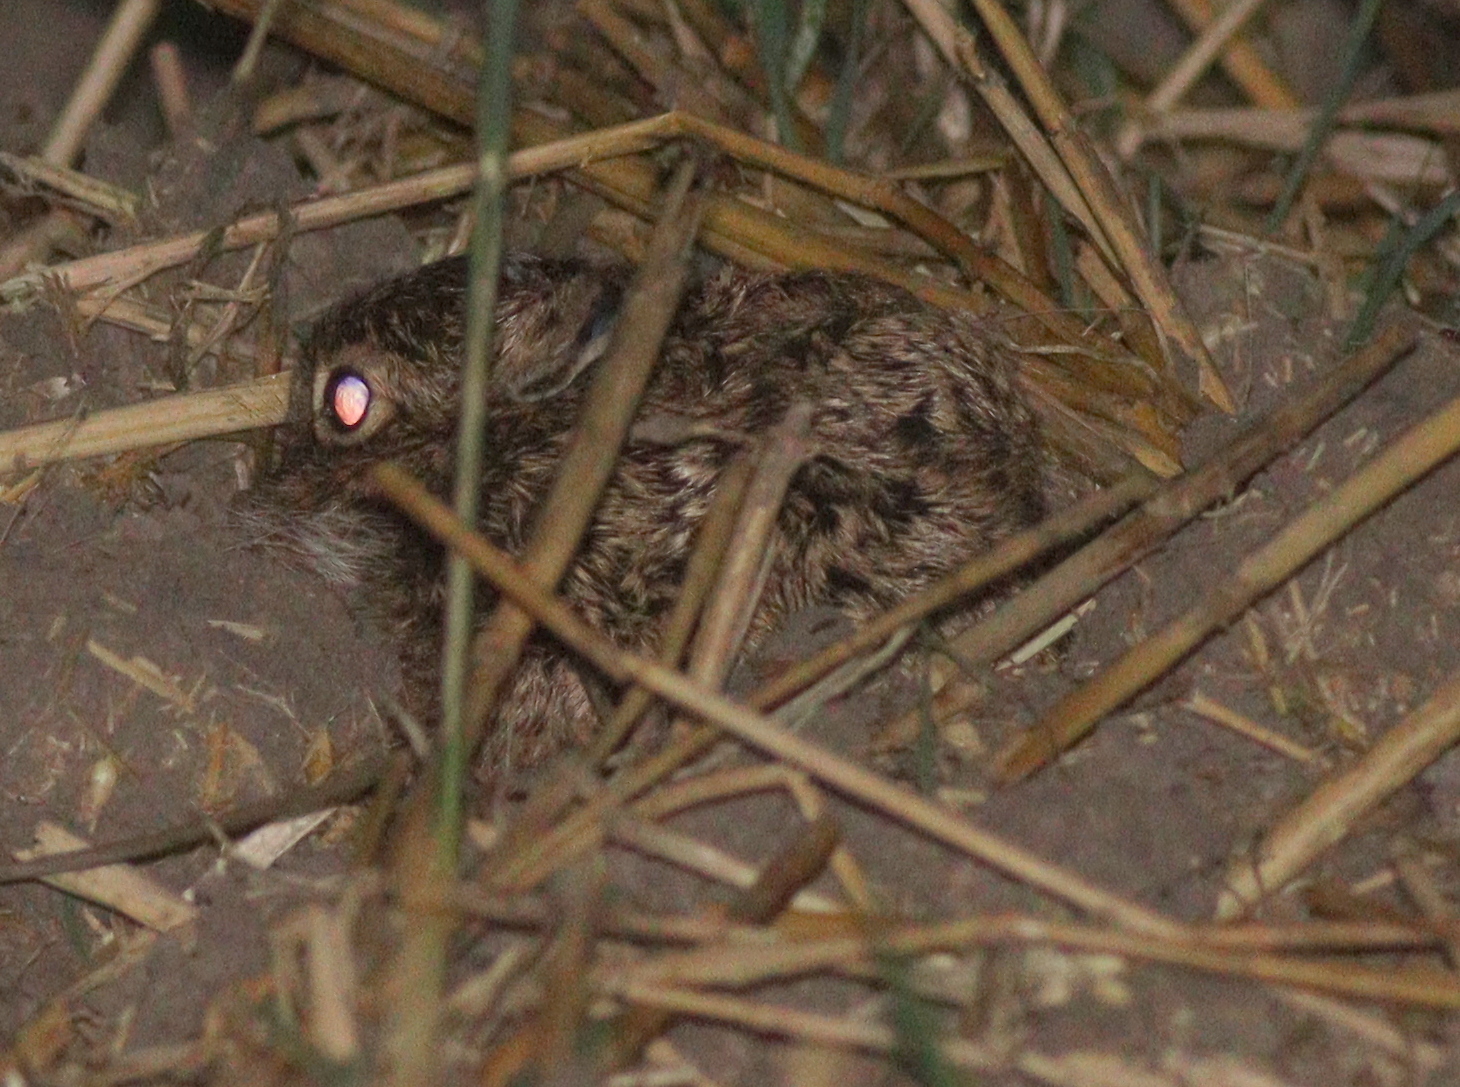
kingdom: Animalia
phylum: Chordata
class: Mammalia
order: Lagomorpha
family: Leporidae
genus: Lepus
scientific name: Lepus europaeus
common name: European hare
